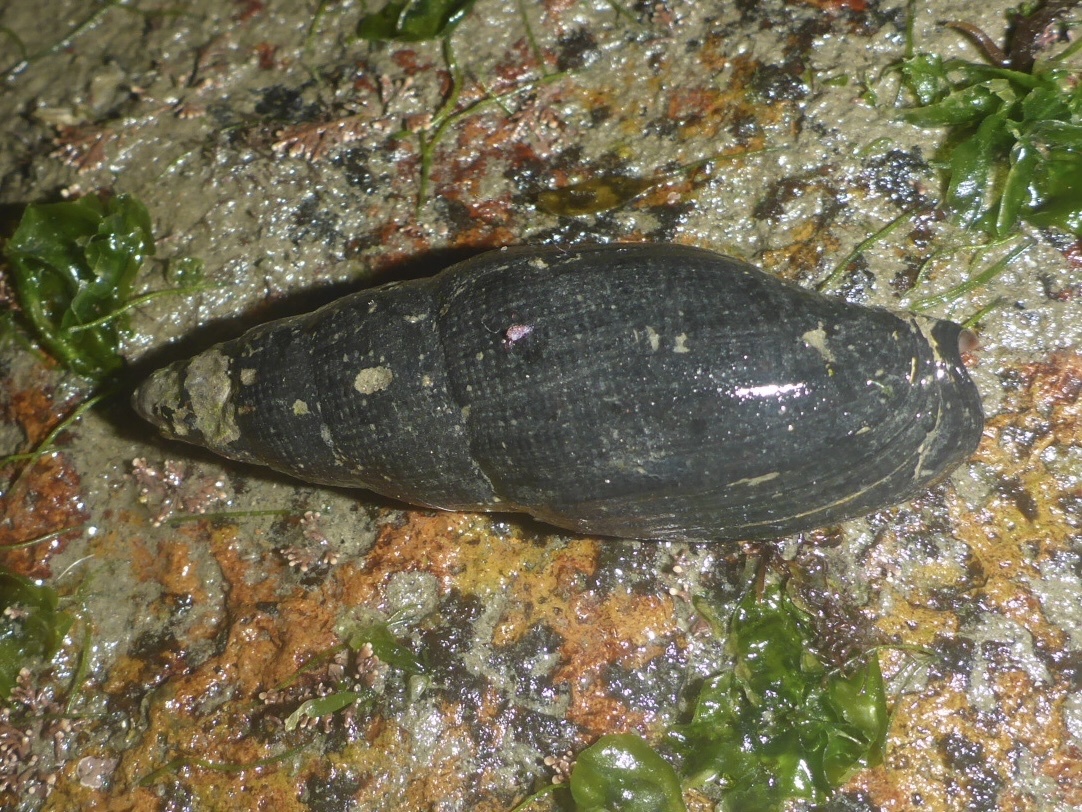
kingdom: Animalia
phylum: Mollusca
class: Gastropoda
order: Neogastropoda
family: Mitridae
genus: Atrimitra
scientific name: Atrimitra idae
